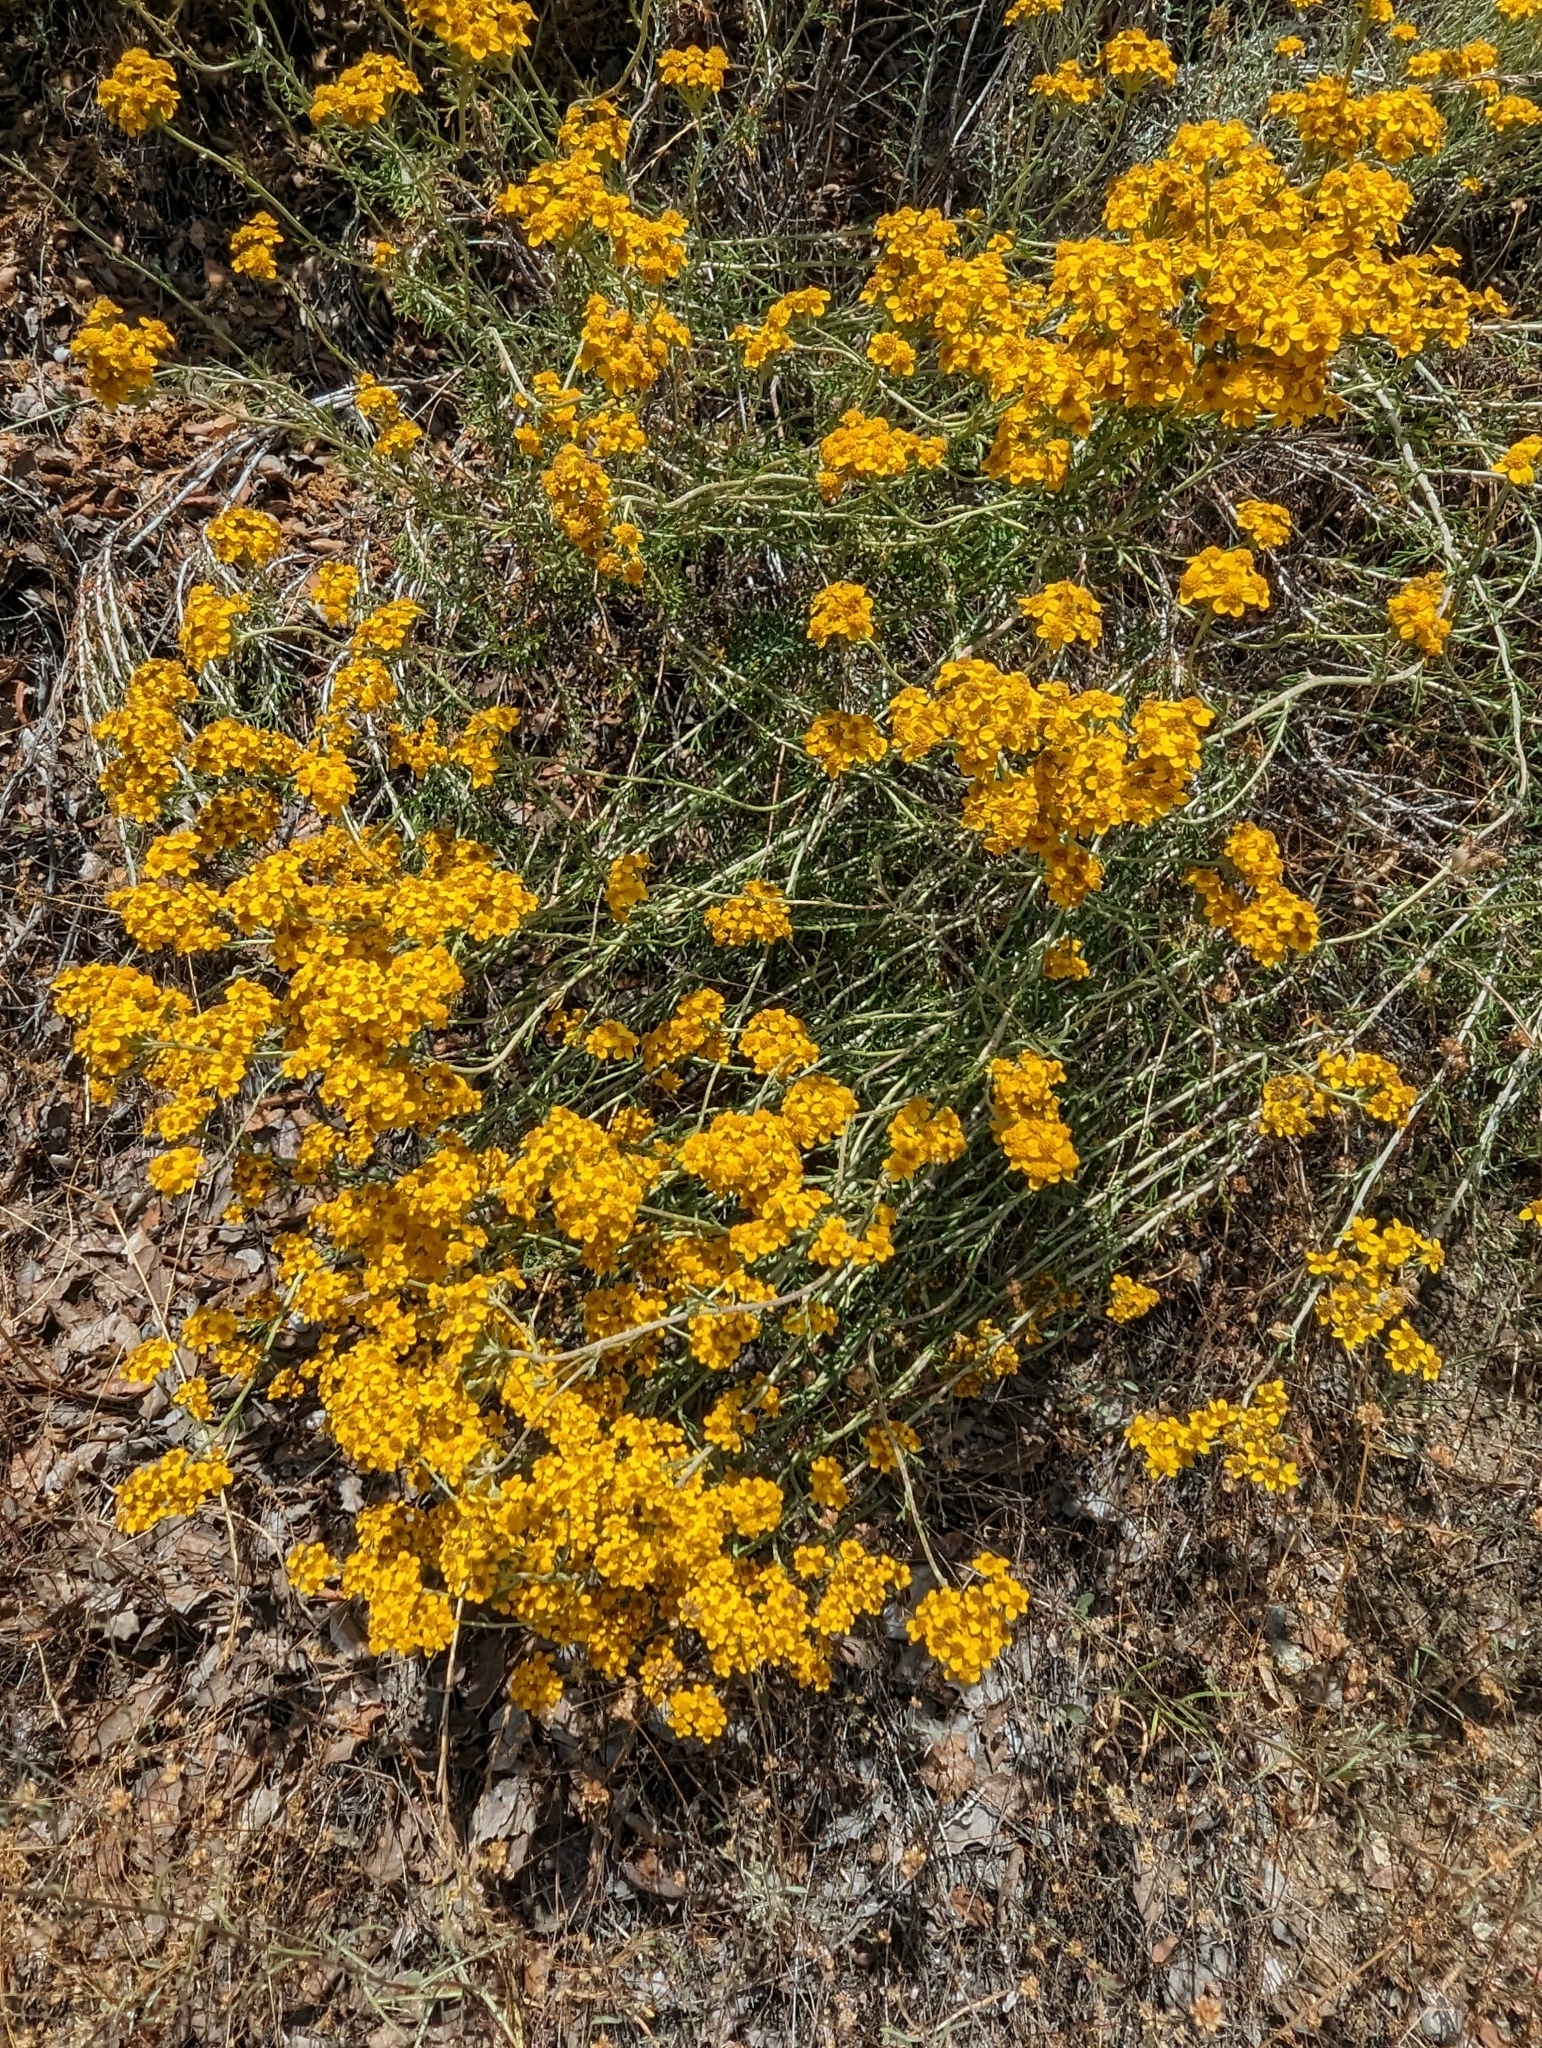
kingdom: Plantae
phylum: Tracheophyta
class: Magnoliopsida
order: Asterales
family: Asteraceae
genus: Eriophyllum
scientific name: Eriophyllum confertiflorum
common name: Golden-yarrow
